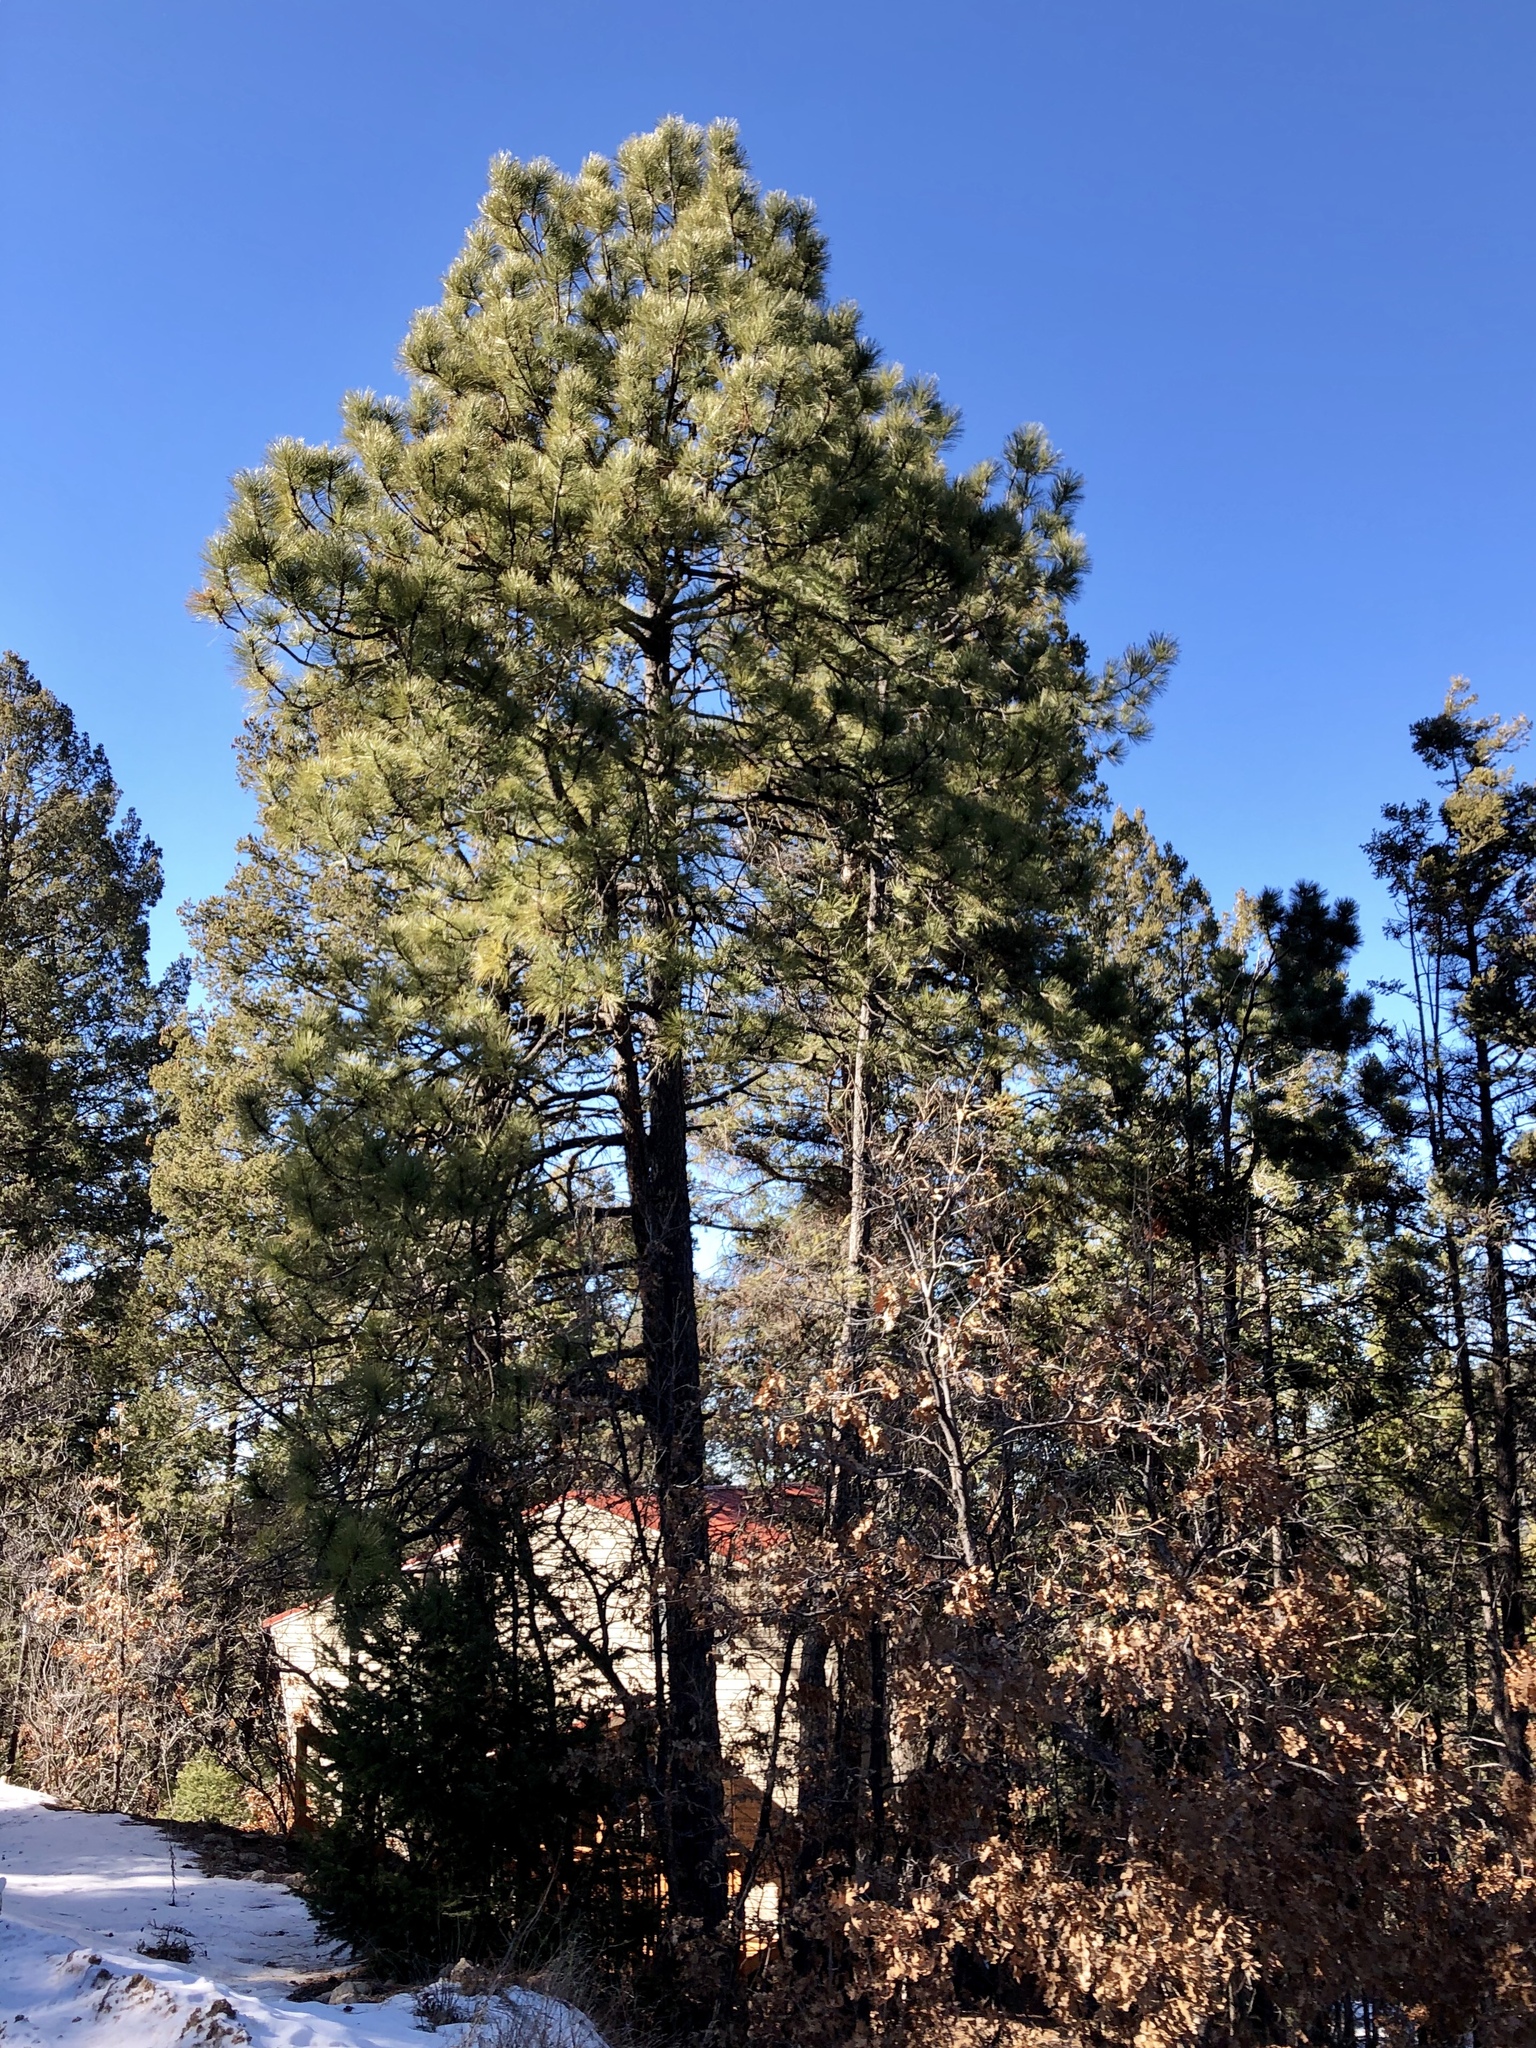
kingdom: Plantae
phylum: Tracheophyta
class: Pinopsida
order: Pinales
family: Pinaceae
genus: Pinus
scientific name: Pinus ponderosa
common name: Western yellow-pine
